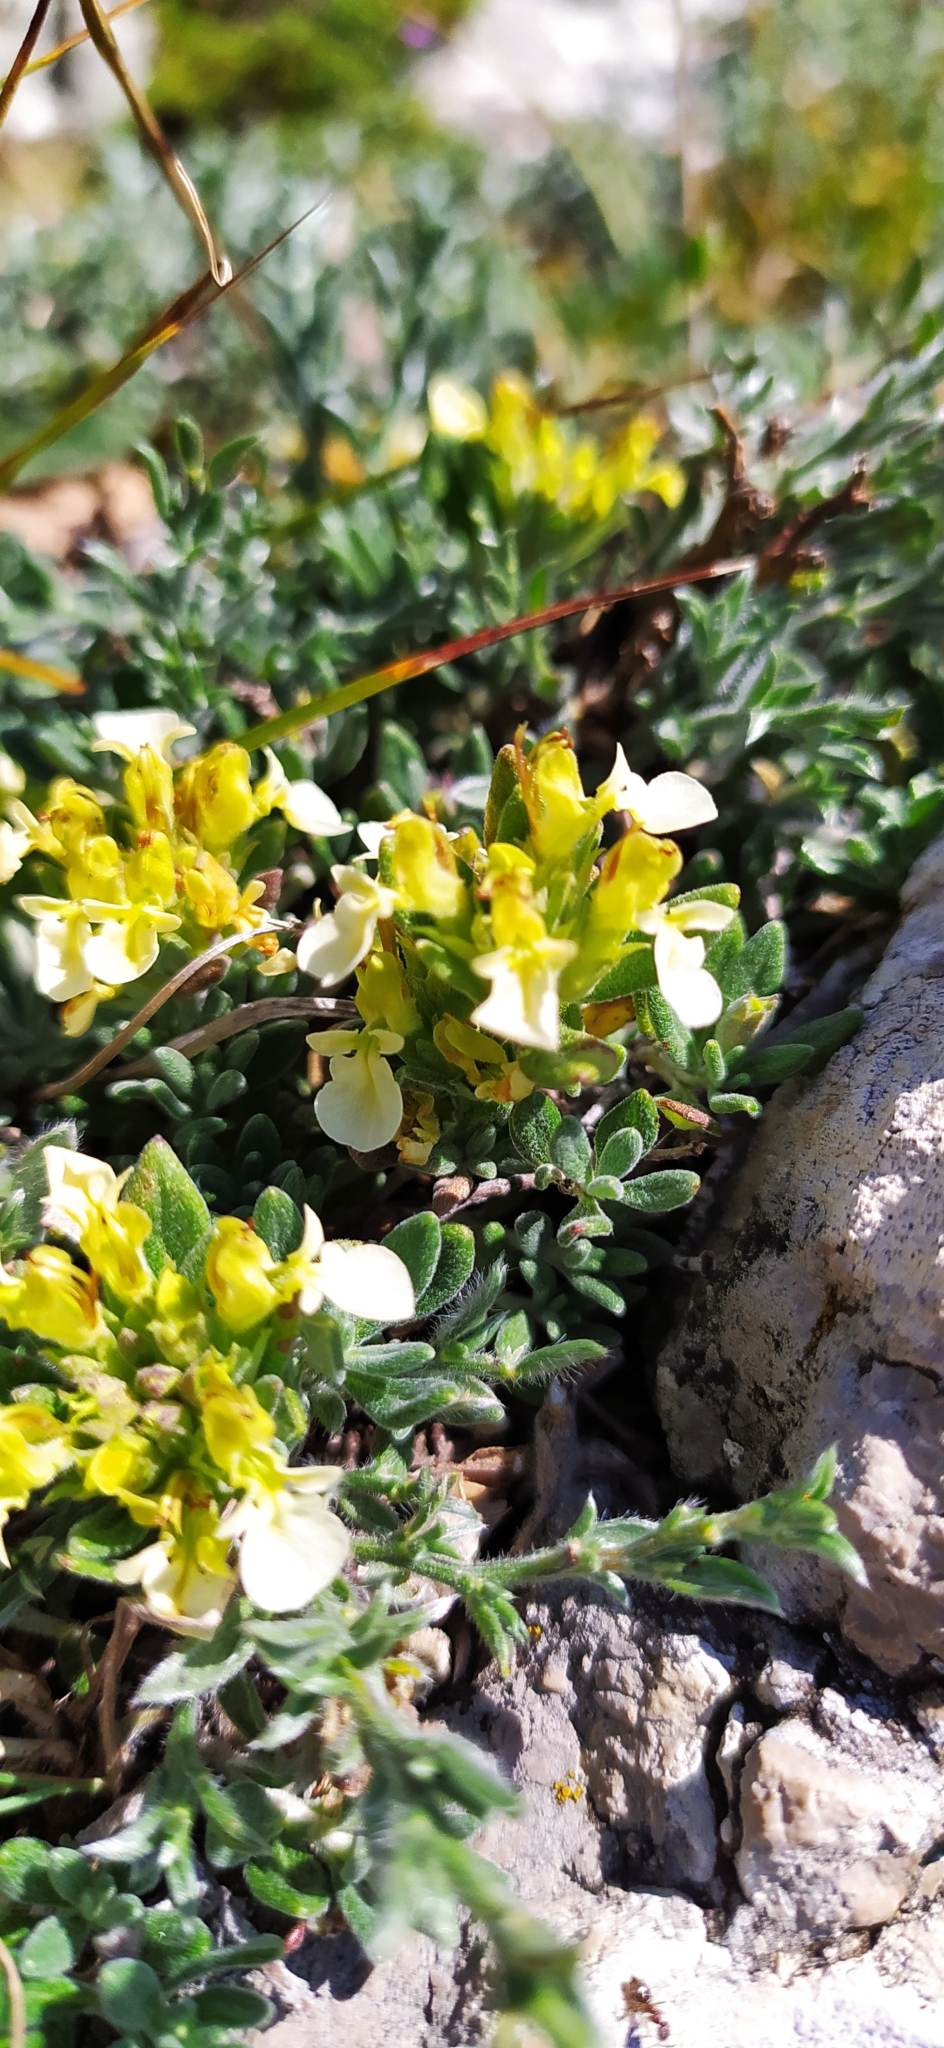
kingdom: Plantae
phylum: Tracheophyta
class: Magnoliopsida
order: Lamiales
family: Lamiaceae
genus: Teucrium
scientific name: Teucrium montanum
